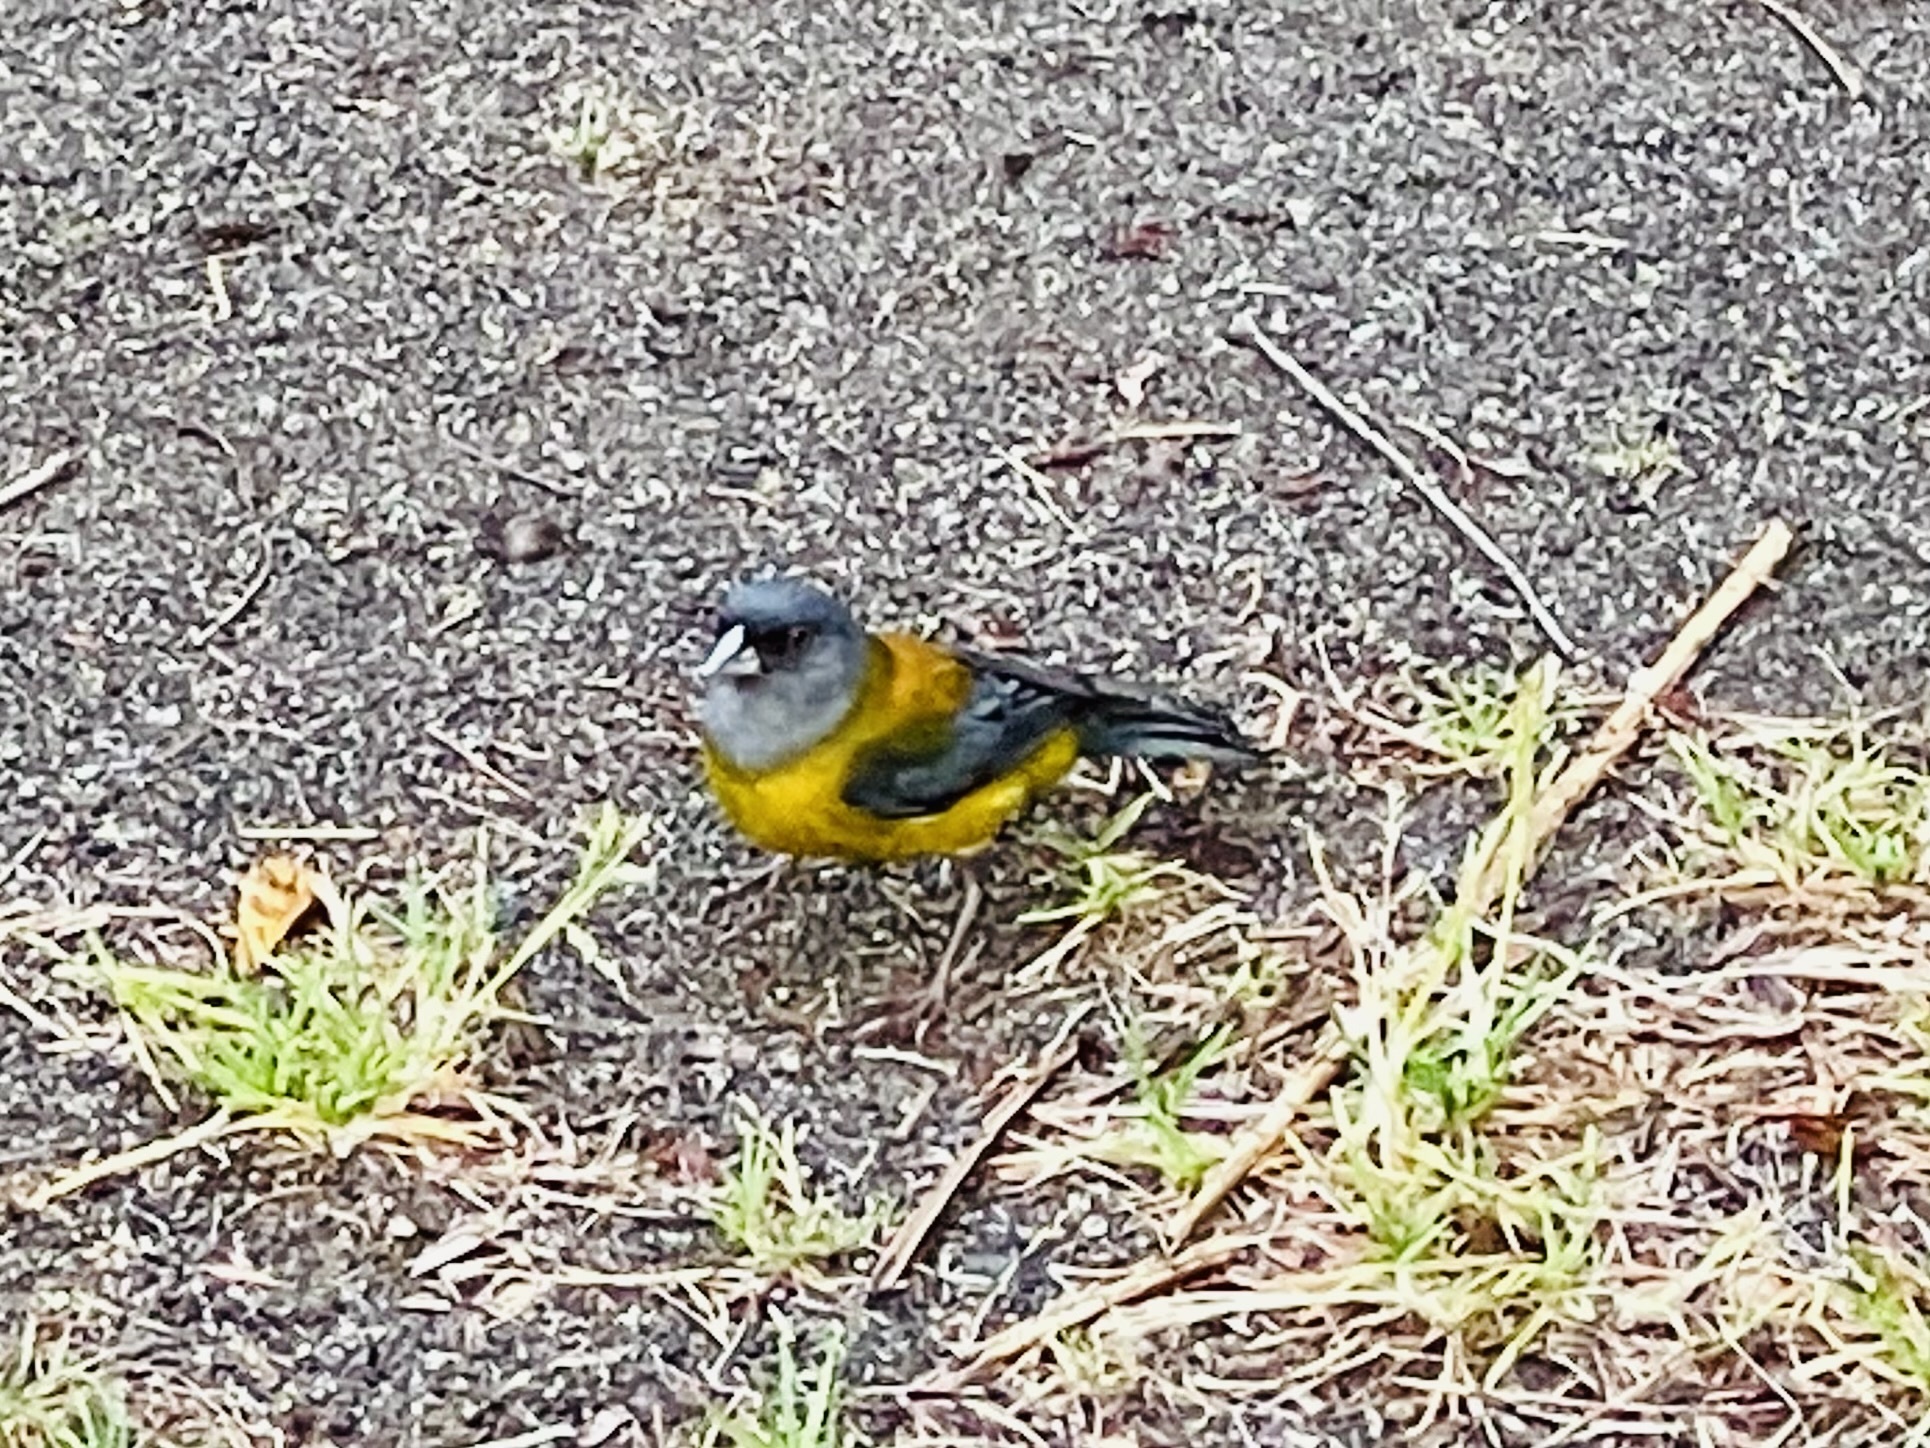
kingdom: Animalia
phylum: Chordata
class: Aves
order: Passeriformes
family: Thraupidae
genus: Phrygilus
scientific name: Phrygilus patagonicus
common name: Patagonian sierra finch
